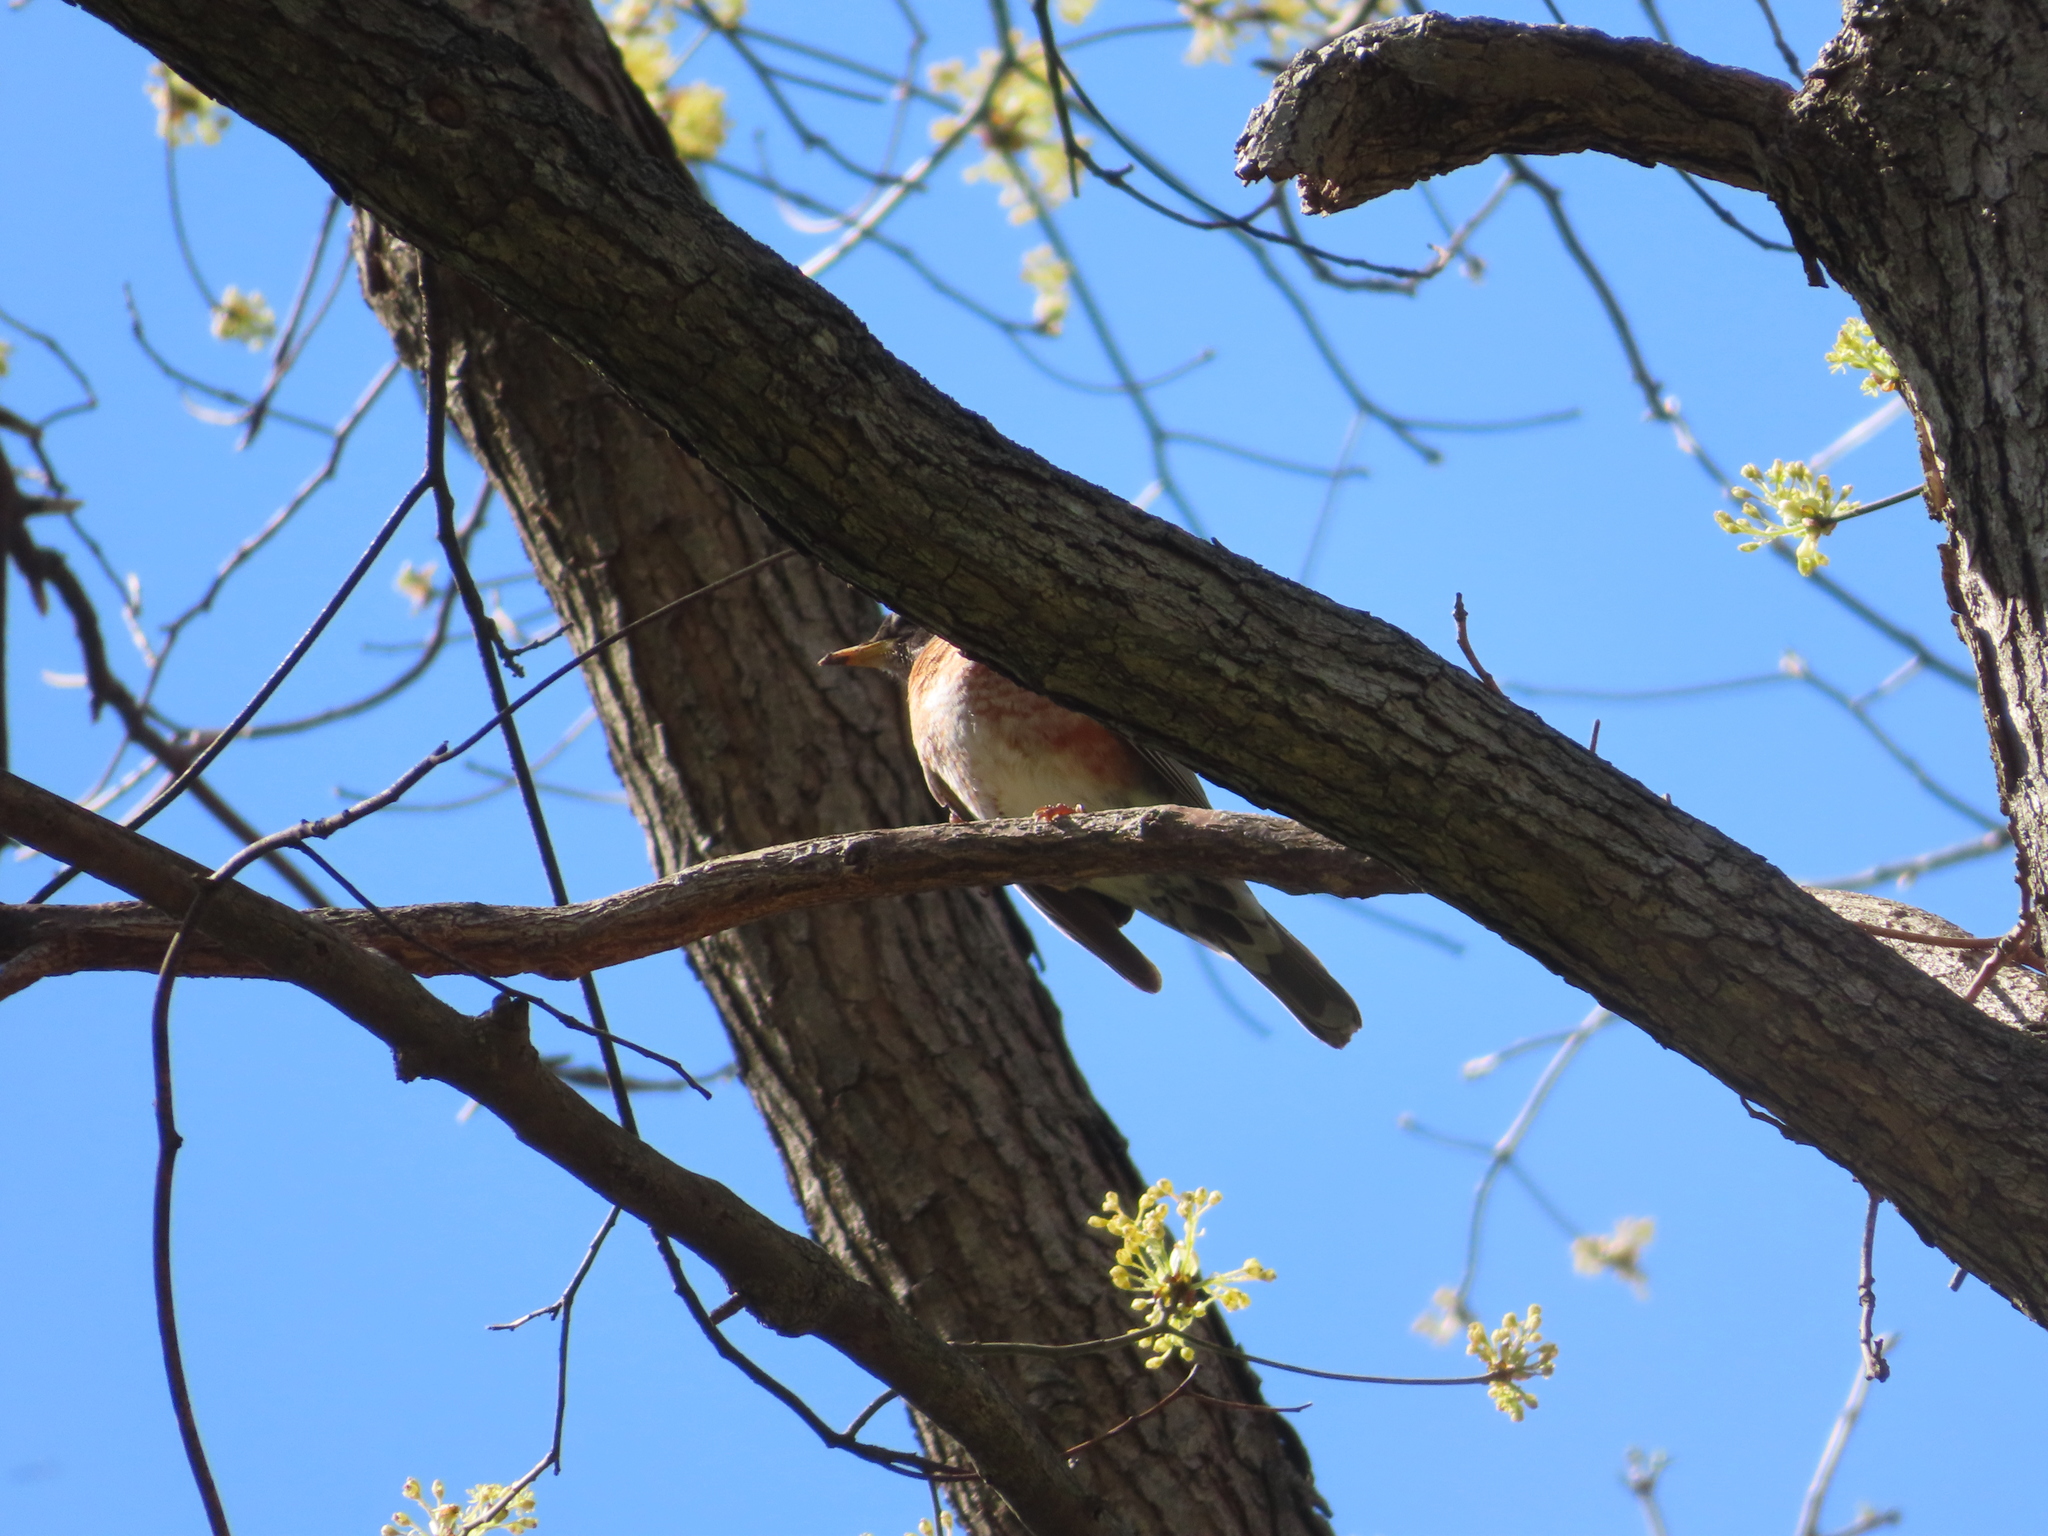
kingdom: Animalia
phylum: Chordata
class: Aves
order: Passeriformes
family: Turdidae
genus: Turdus
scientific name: Turdus migratorius
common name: American robin
